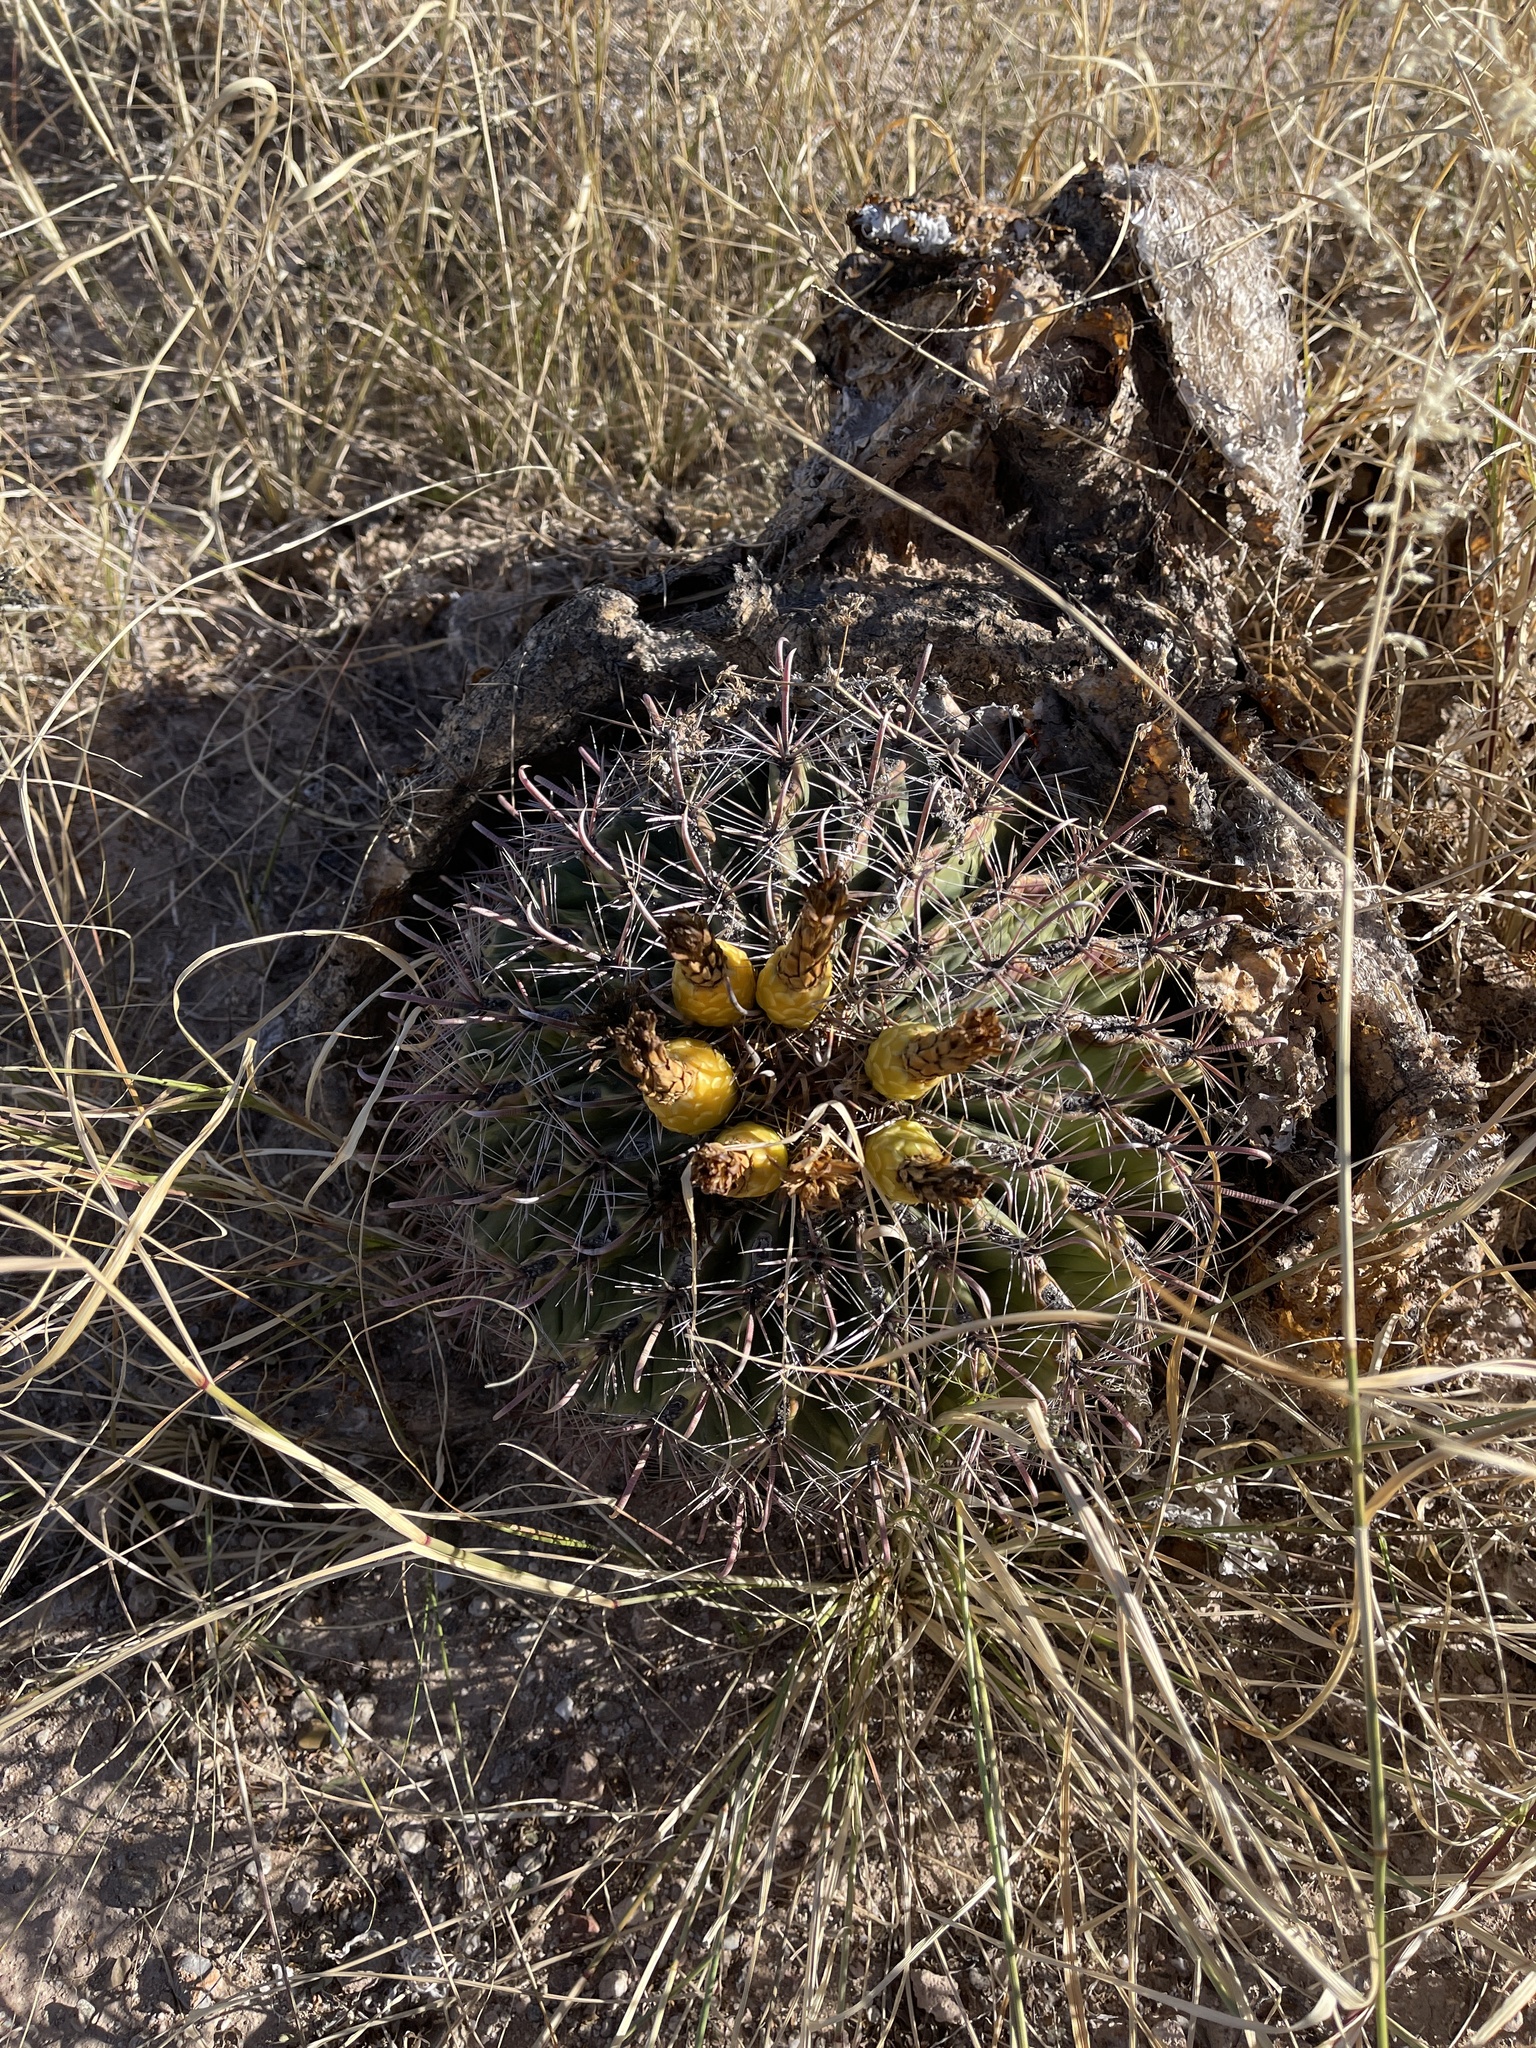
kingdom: Plantae
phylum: Tracheophyta
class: Magnoliopsida
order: Caryophyllales
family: Cactaceae
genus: Ferocactus
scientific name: Ferocactus wislizeni
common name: Candy barrel cactus
